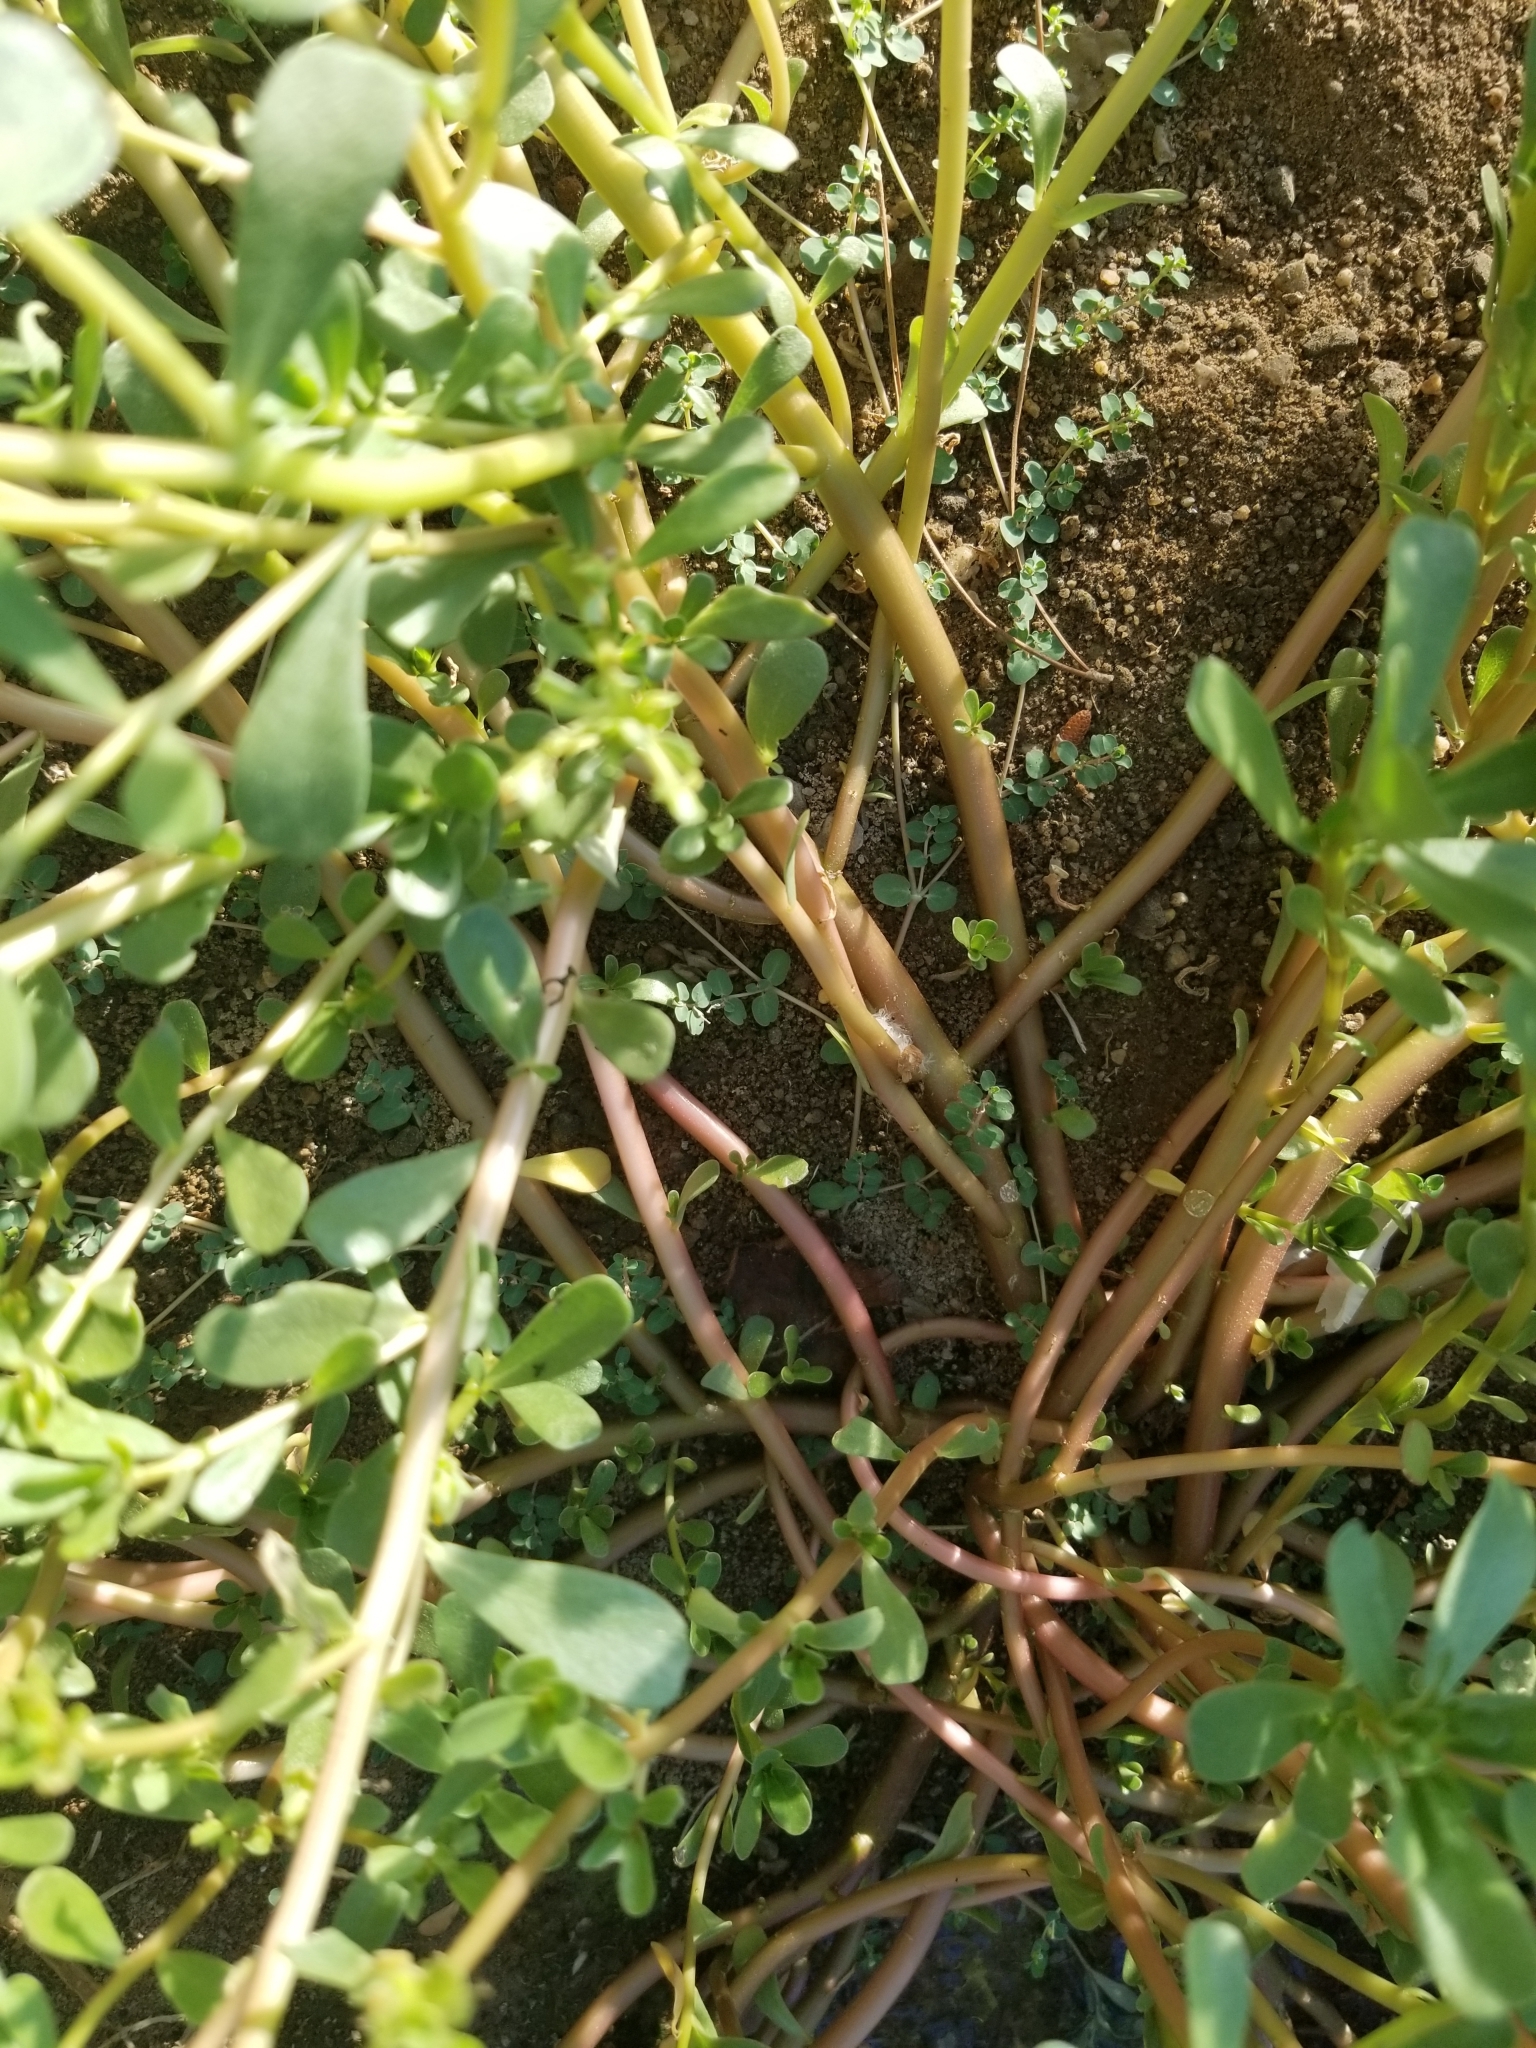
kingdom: Plantae
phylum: Tracheophyta
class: Magnoliopsida
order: Caryophyllales
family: Portulacaceae
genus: Portulaca
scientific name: Portulaca oleracea
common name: Common purslane
